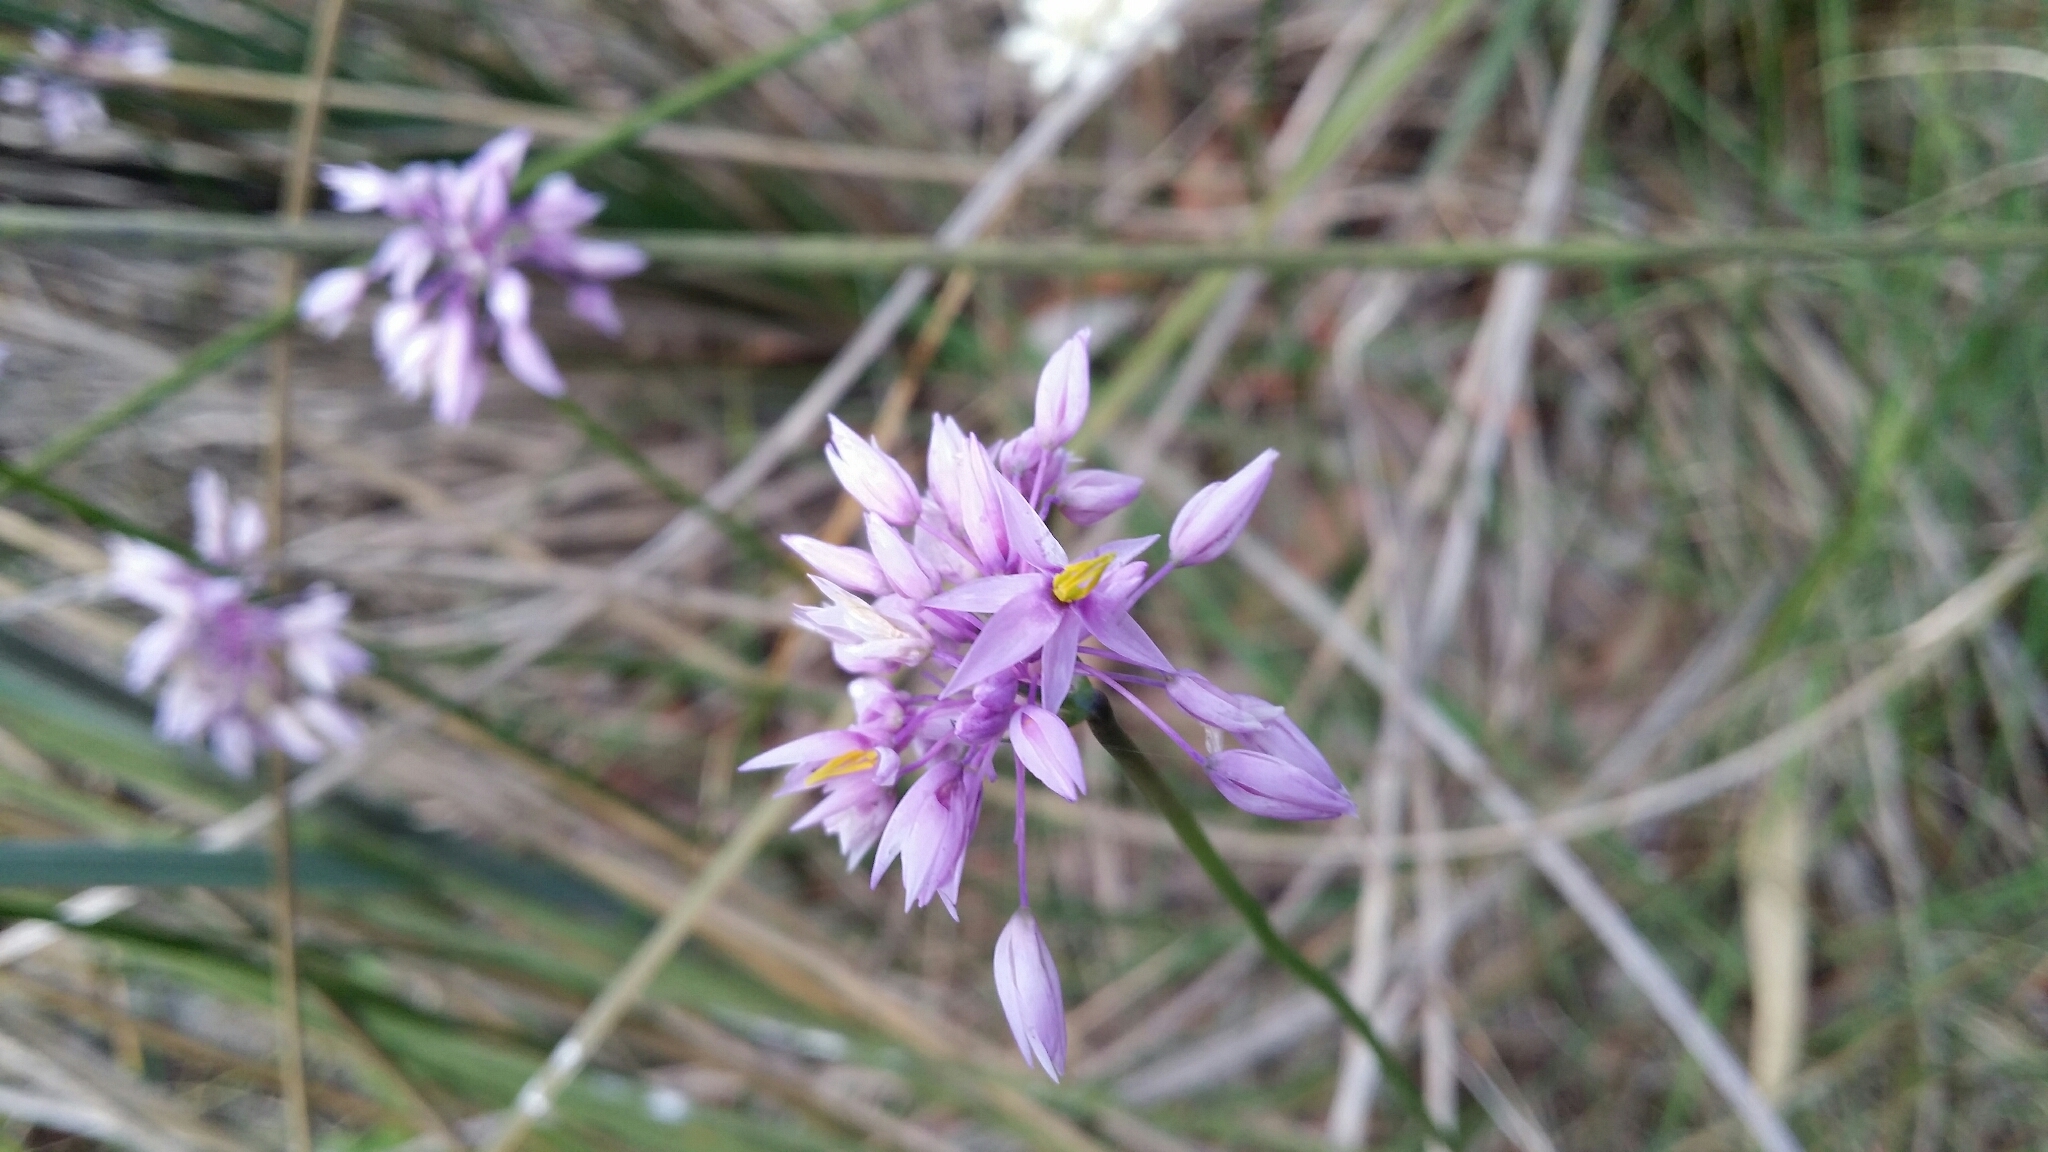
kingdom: Plantae
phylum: Tracheophyta
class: Liliopsida
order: Asparagales
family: Asparagaceae
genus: Sowerbaea
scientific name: Sowerbaea laxiflora
